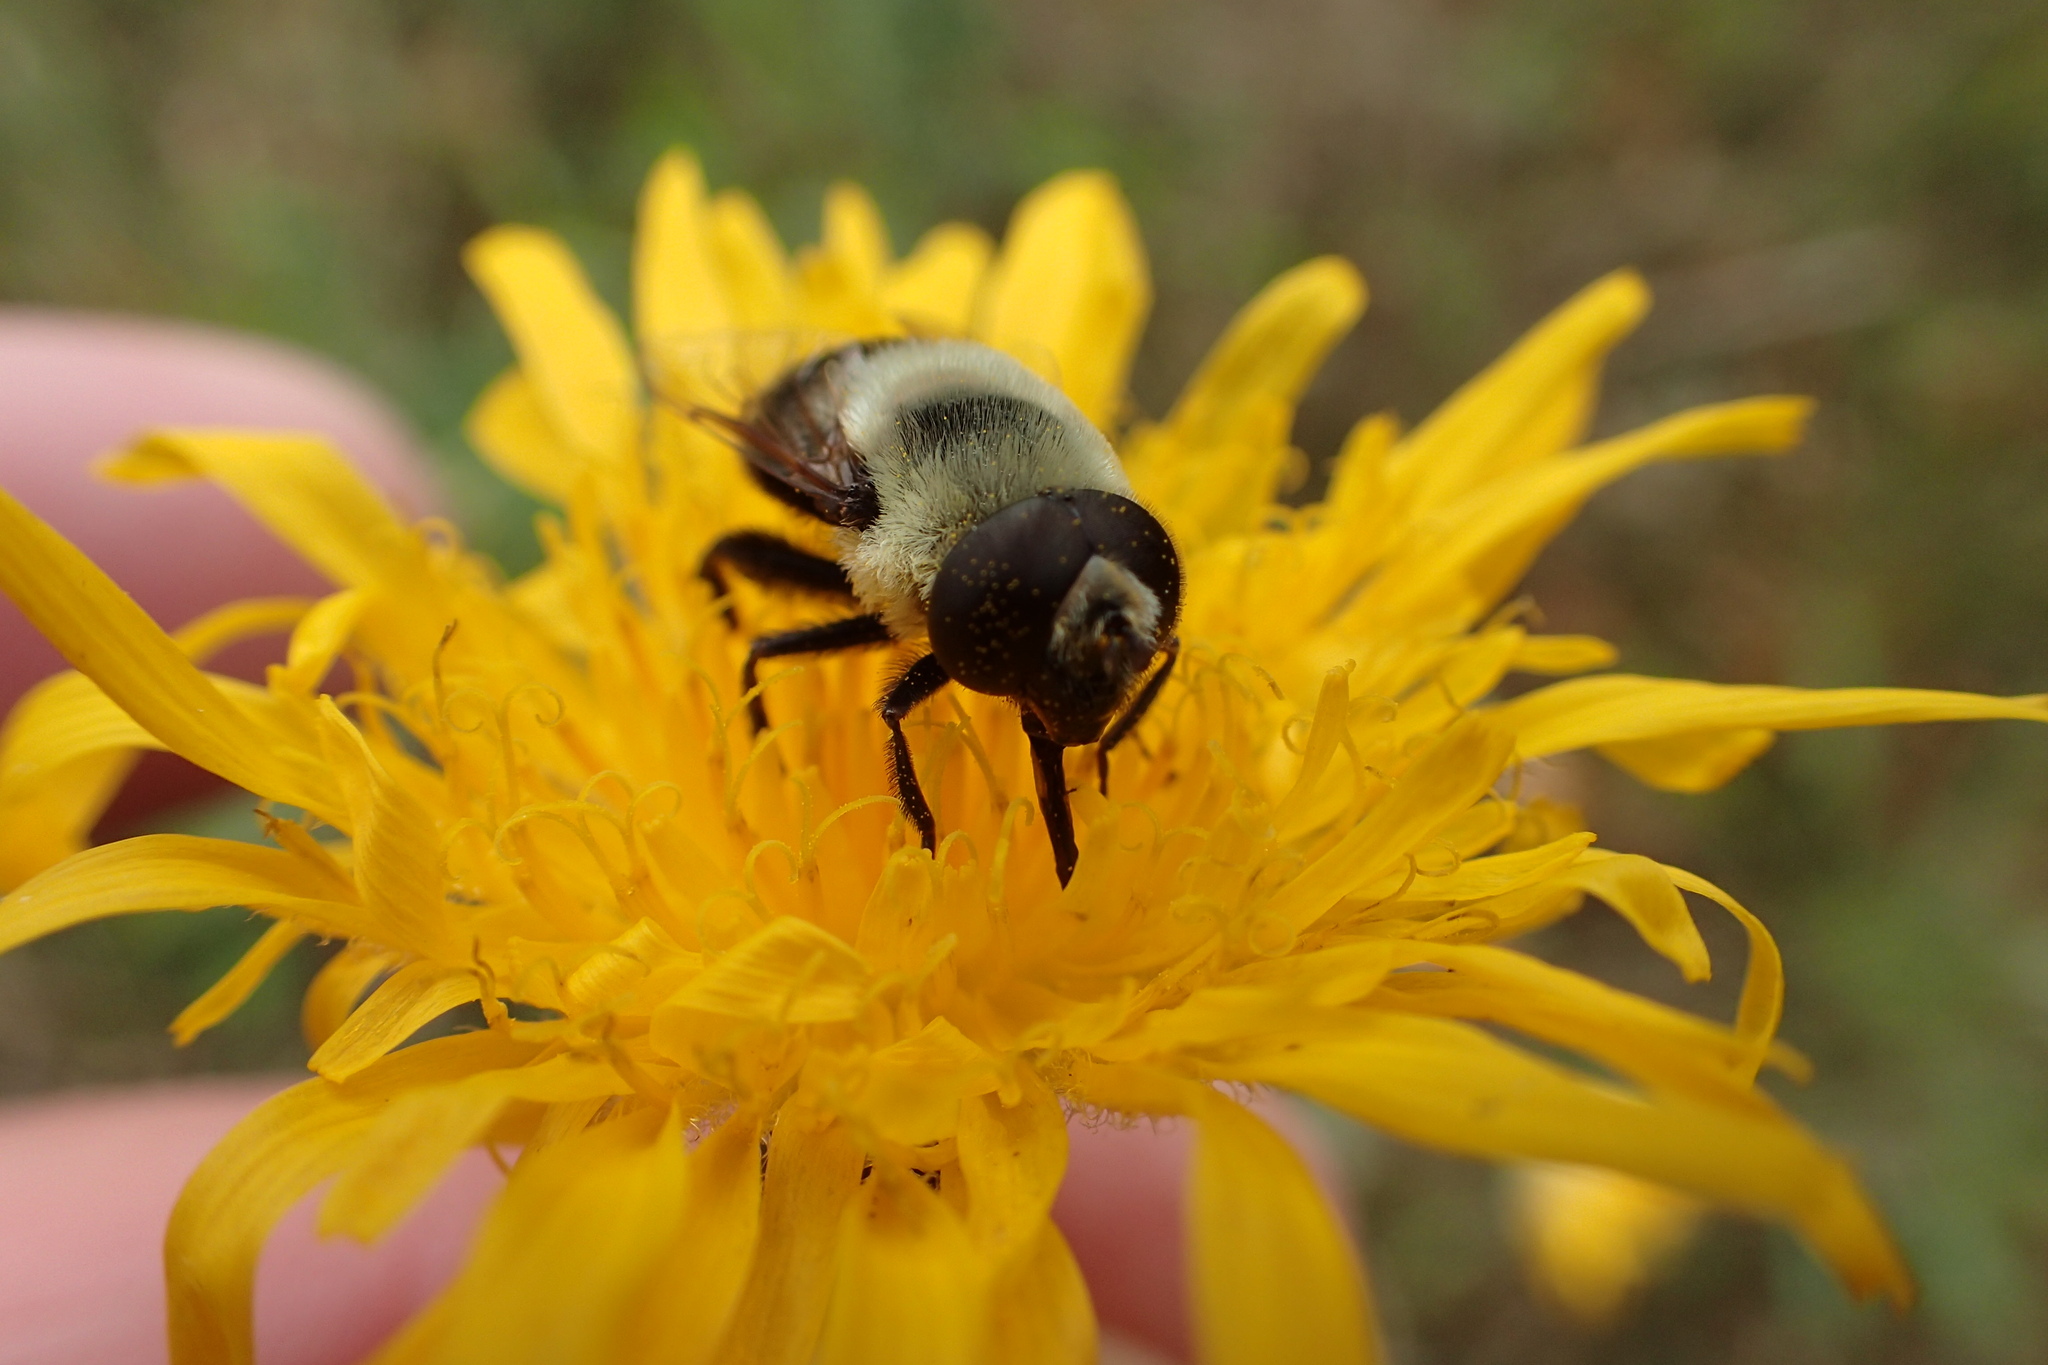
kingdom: Animalia
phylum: Arthropoda
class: Insecta
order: Diptera
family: Syrphidae
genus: Eristalis
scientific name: Eristalis flavipes
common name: Orange-legged drone fly
